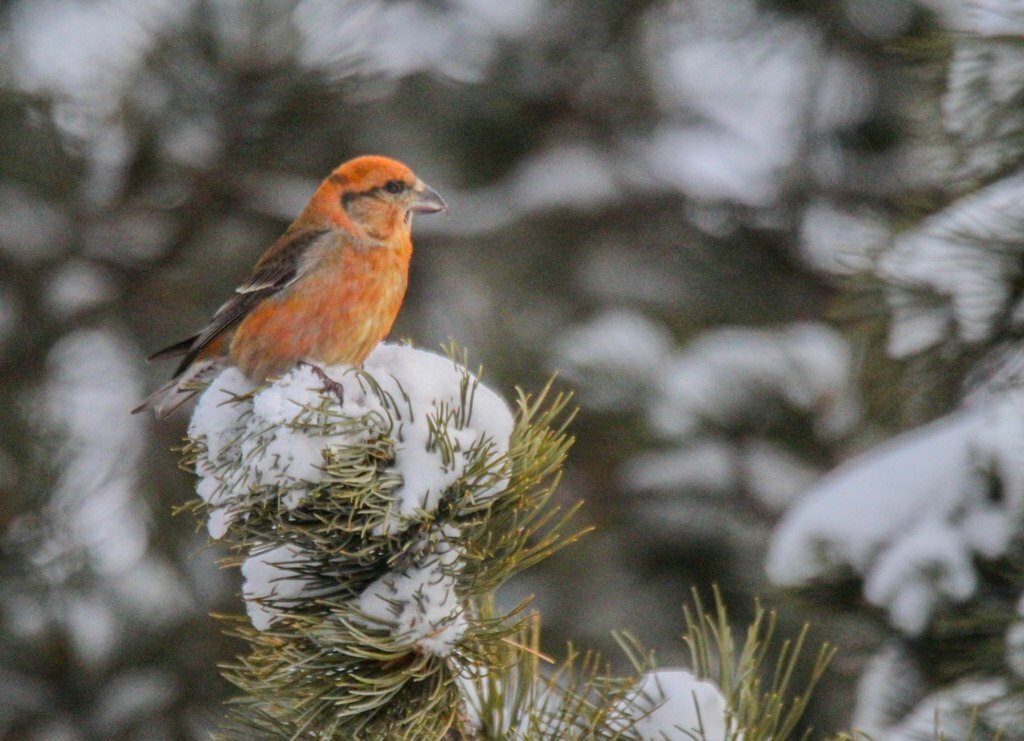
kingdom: Animalia
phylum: Chordata
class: Aves
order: Passeriformes
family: Fringillidae
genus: Loxia
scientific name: Loxia curvirostra
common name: Red crossbill
